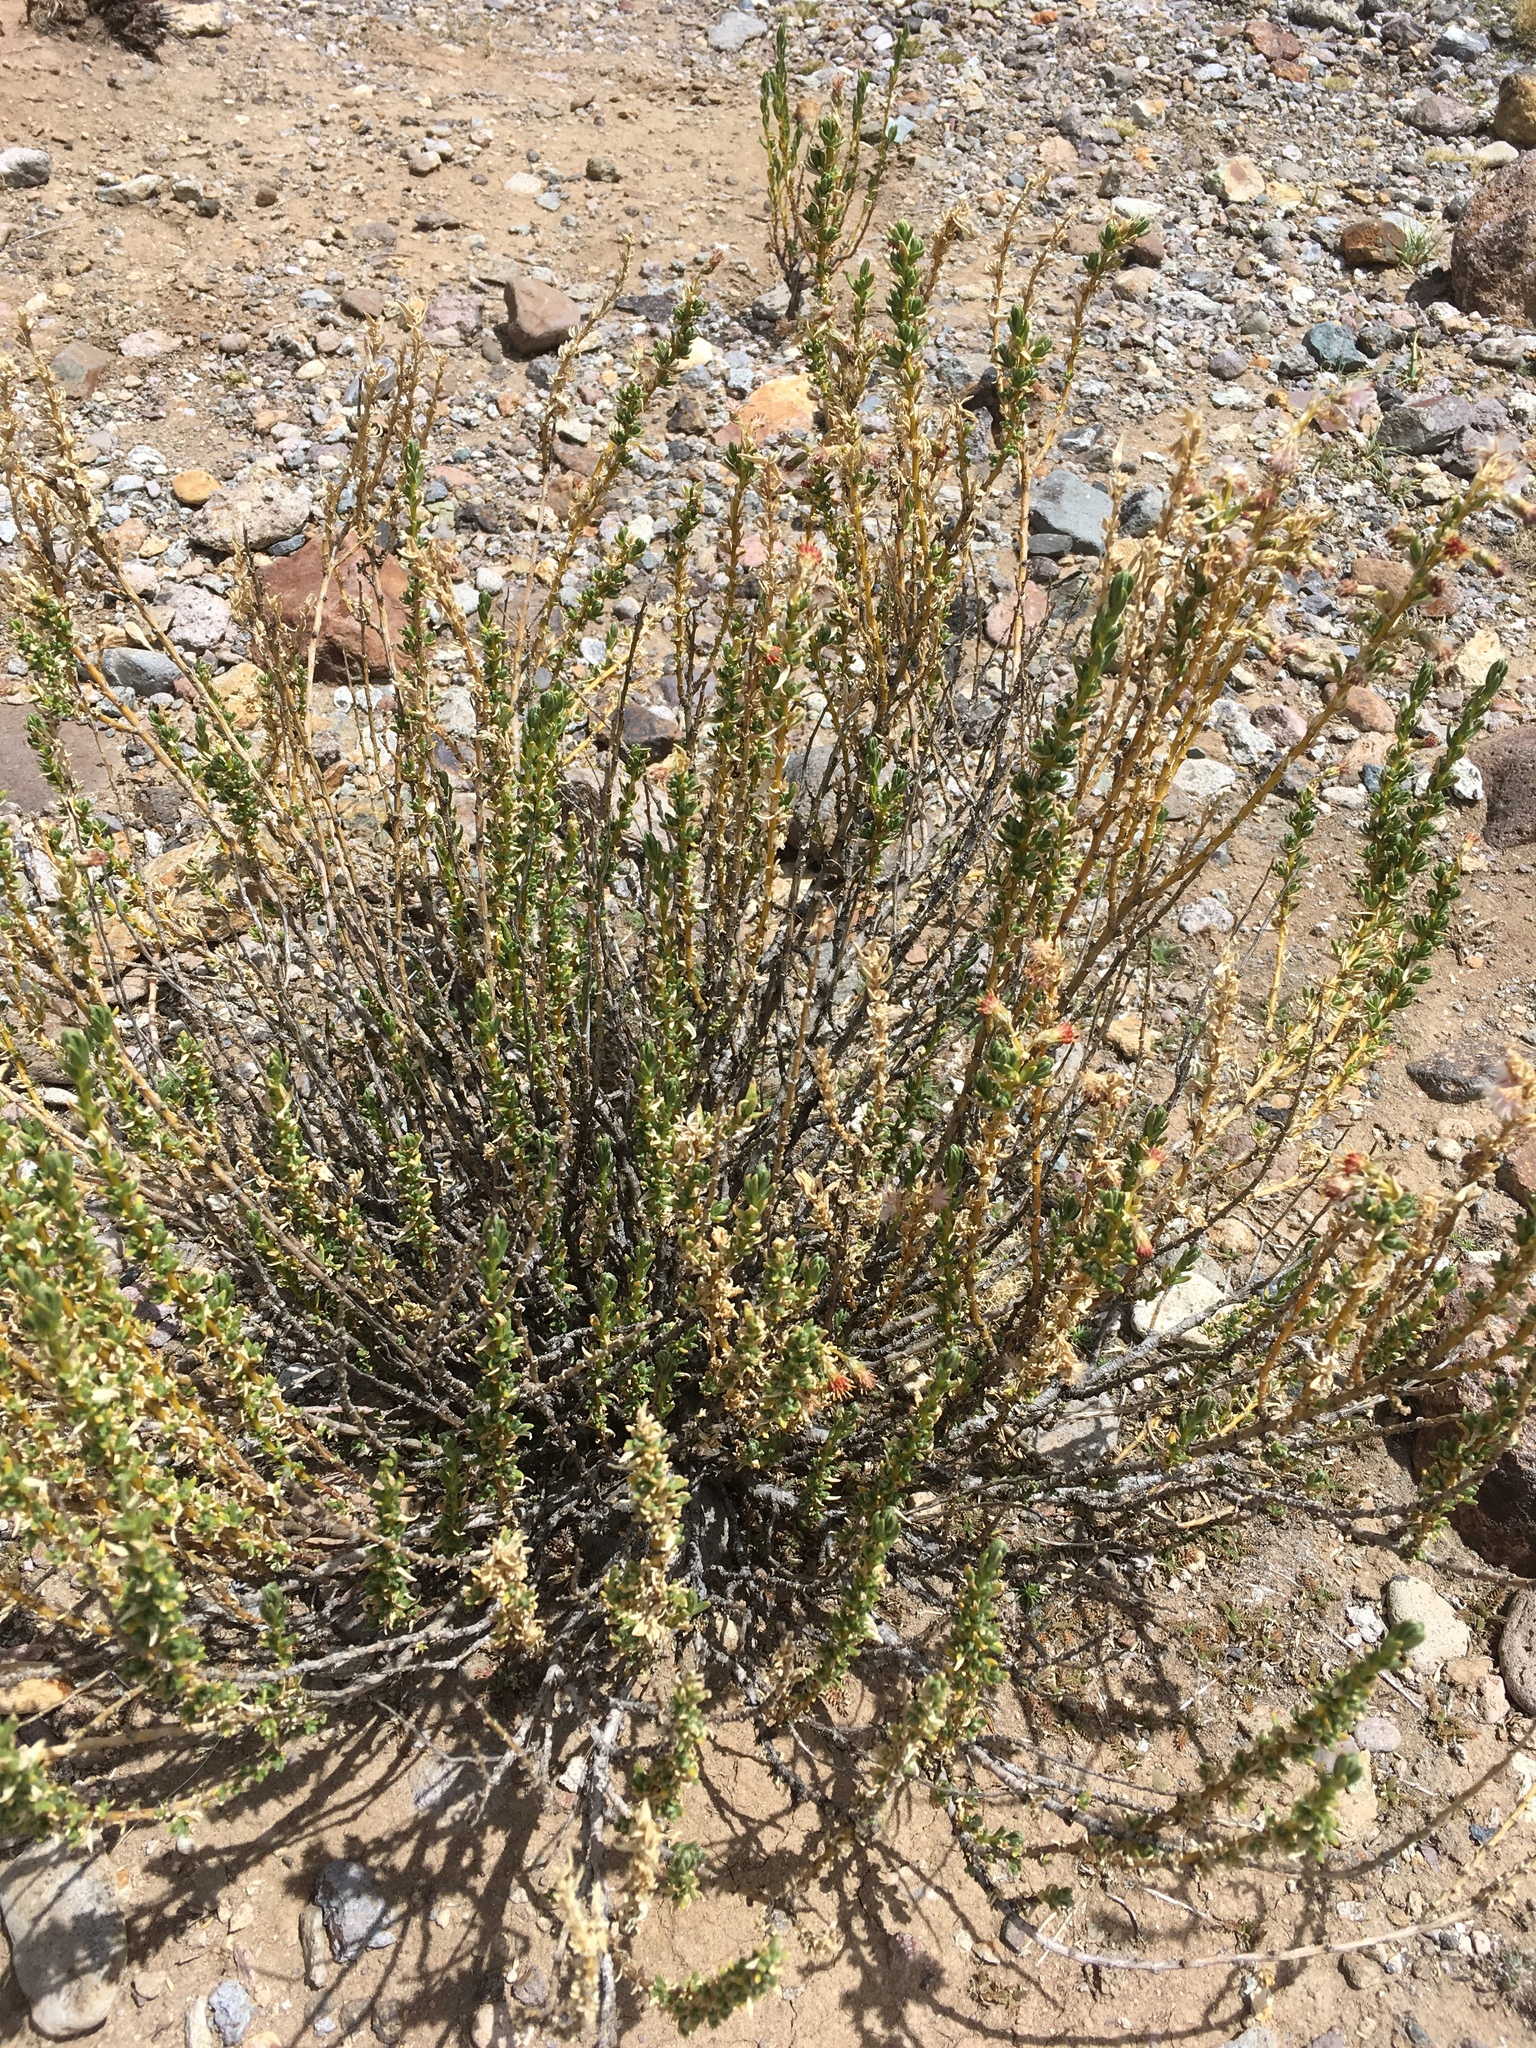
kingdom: Plantae
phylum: Tracheophyta
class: Magnoliopsida
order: Asterales
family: Asteraceae
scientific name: Asteraceae
